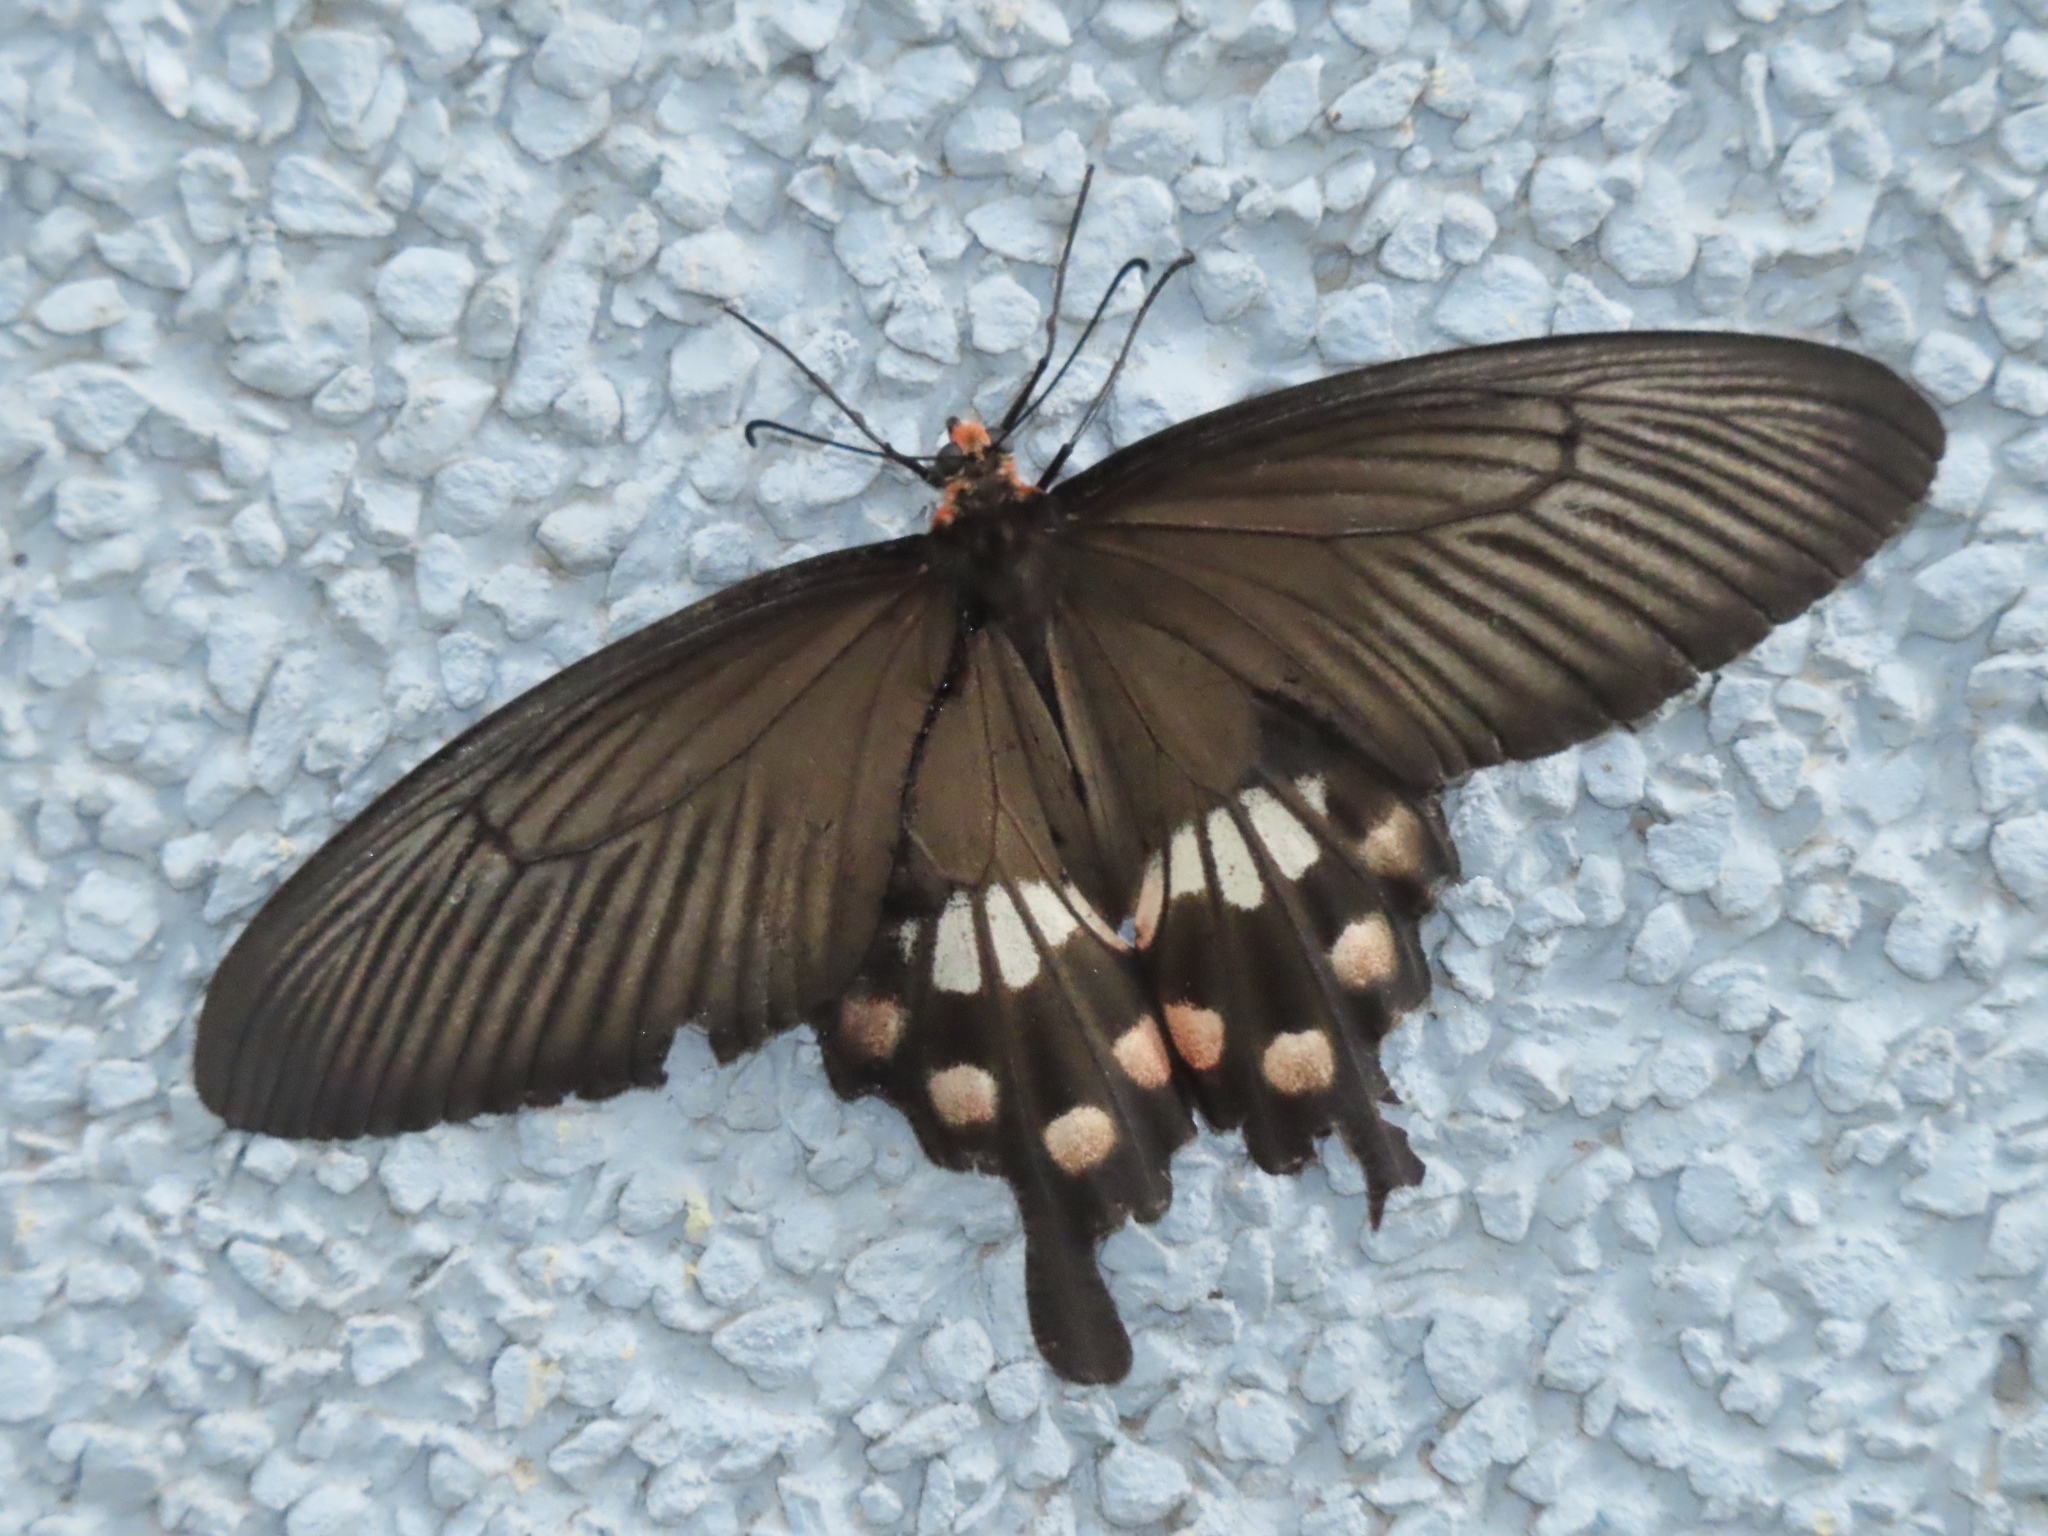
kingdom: Animalia
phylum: Arthropoda
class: Insecta
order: Lepidoptera
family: Papilionidae
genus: Pachliopta
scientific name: Pachliopta aristolochiae
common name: Common rose
